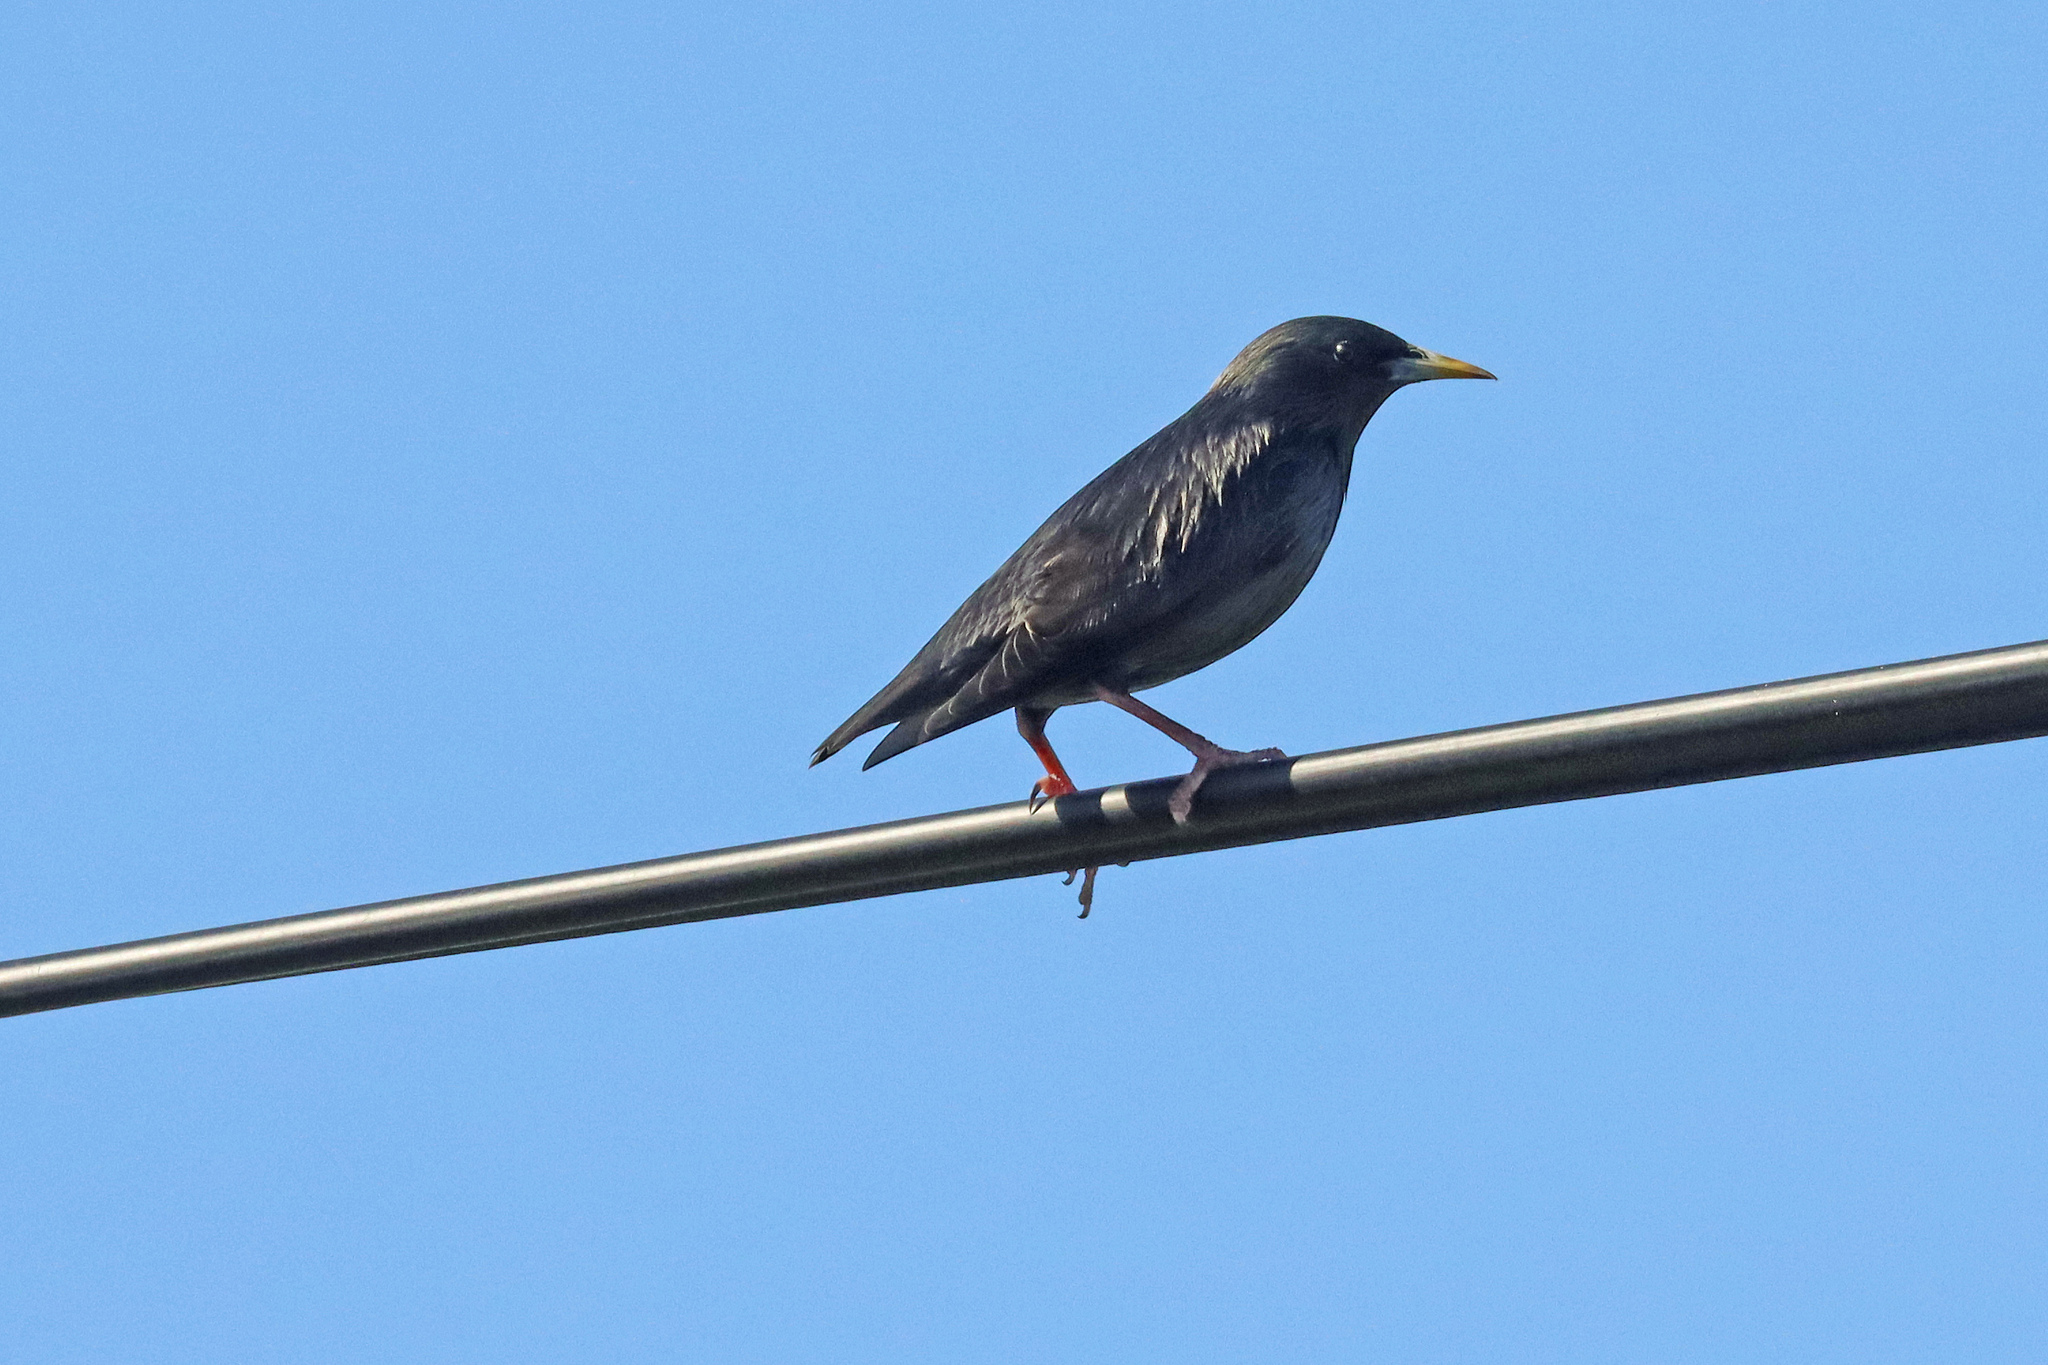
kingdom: Animalia
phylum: Chordata
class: Aves
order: Passeriformes
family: Sturnidae
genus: Sturnus
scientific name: Sturnus unicolor
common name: Spotless starling
